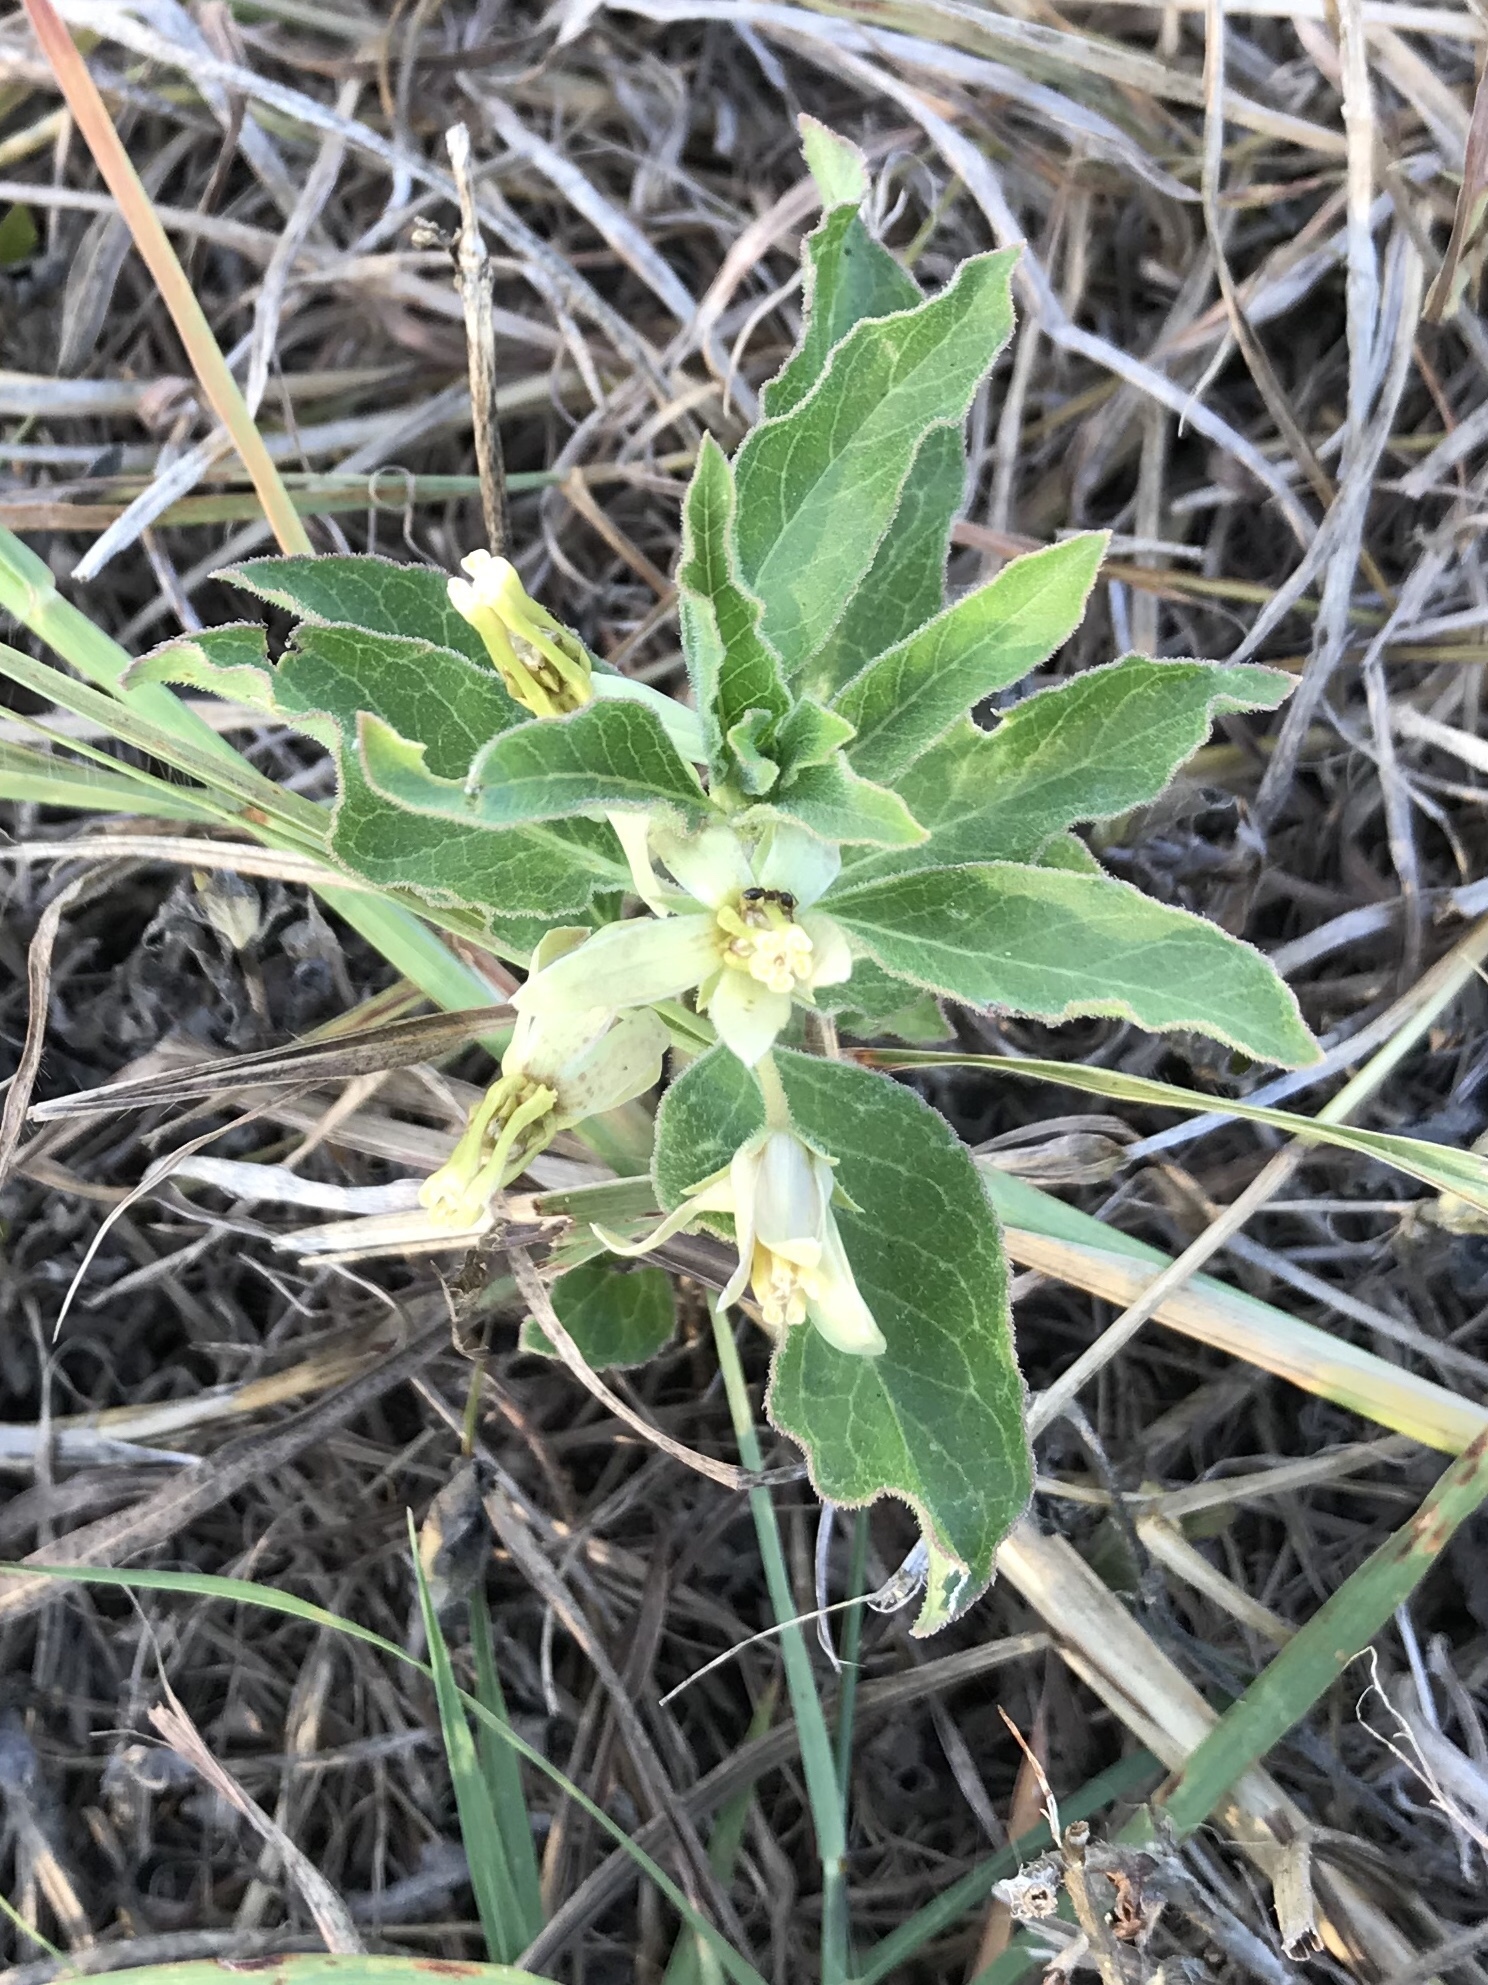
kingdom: Plantae
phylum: Tracheophyta
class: Magnoliopsida
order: Gentianales
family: Apocynaceae
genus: Asclepias
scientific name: Asclepias oenotheroides
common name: Zizotes milkweed
